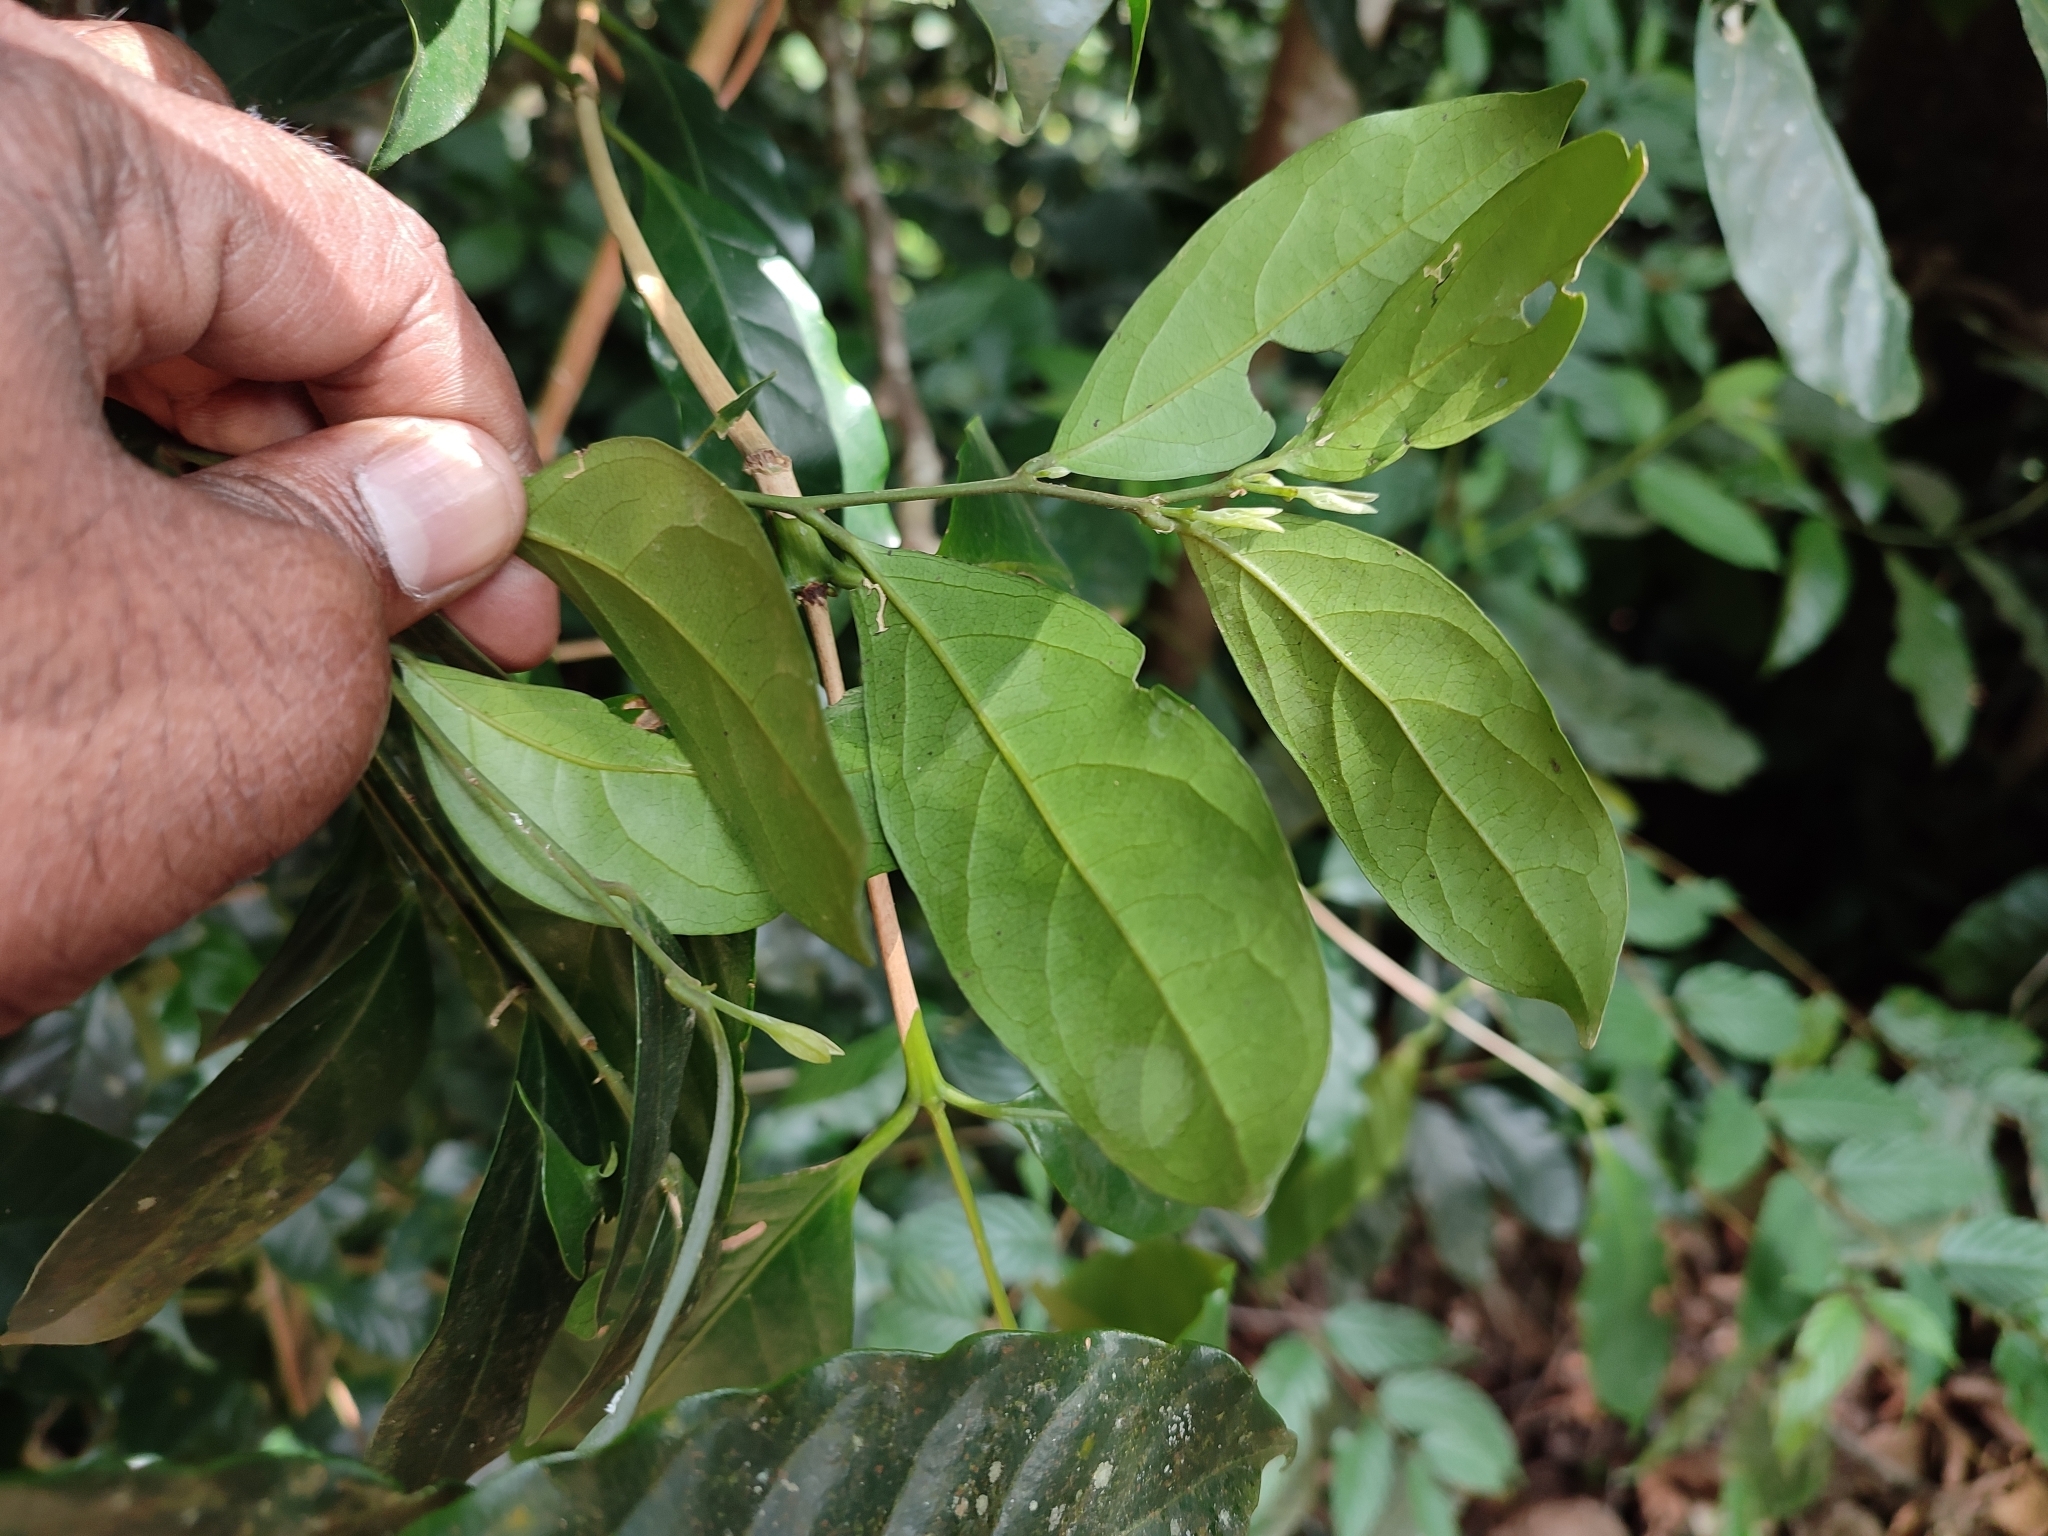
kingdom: Plantae
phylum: Tracheophyta
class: Magnoliopsida
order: Fabales
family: Polygalaceae
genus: Xanthophyllum
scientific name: Xanthophyllum flavescens
